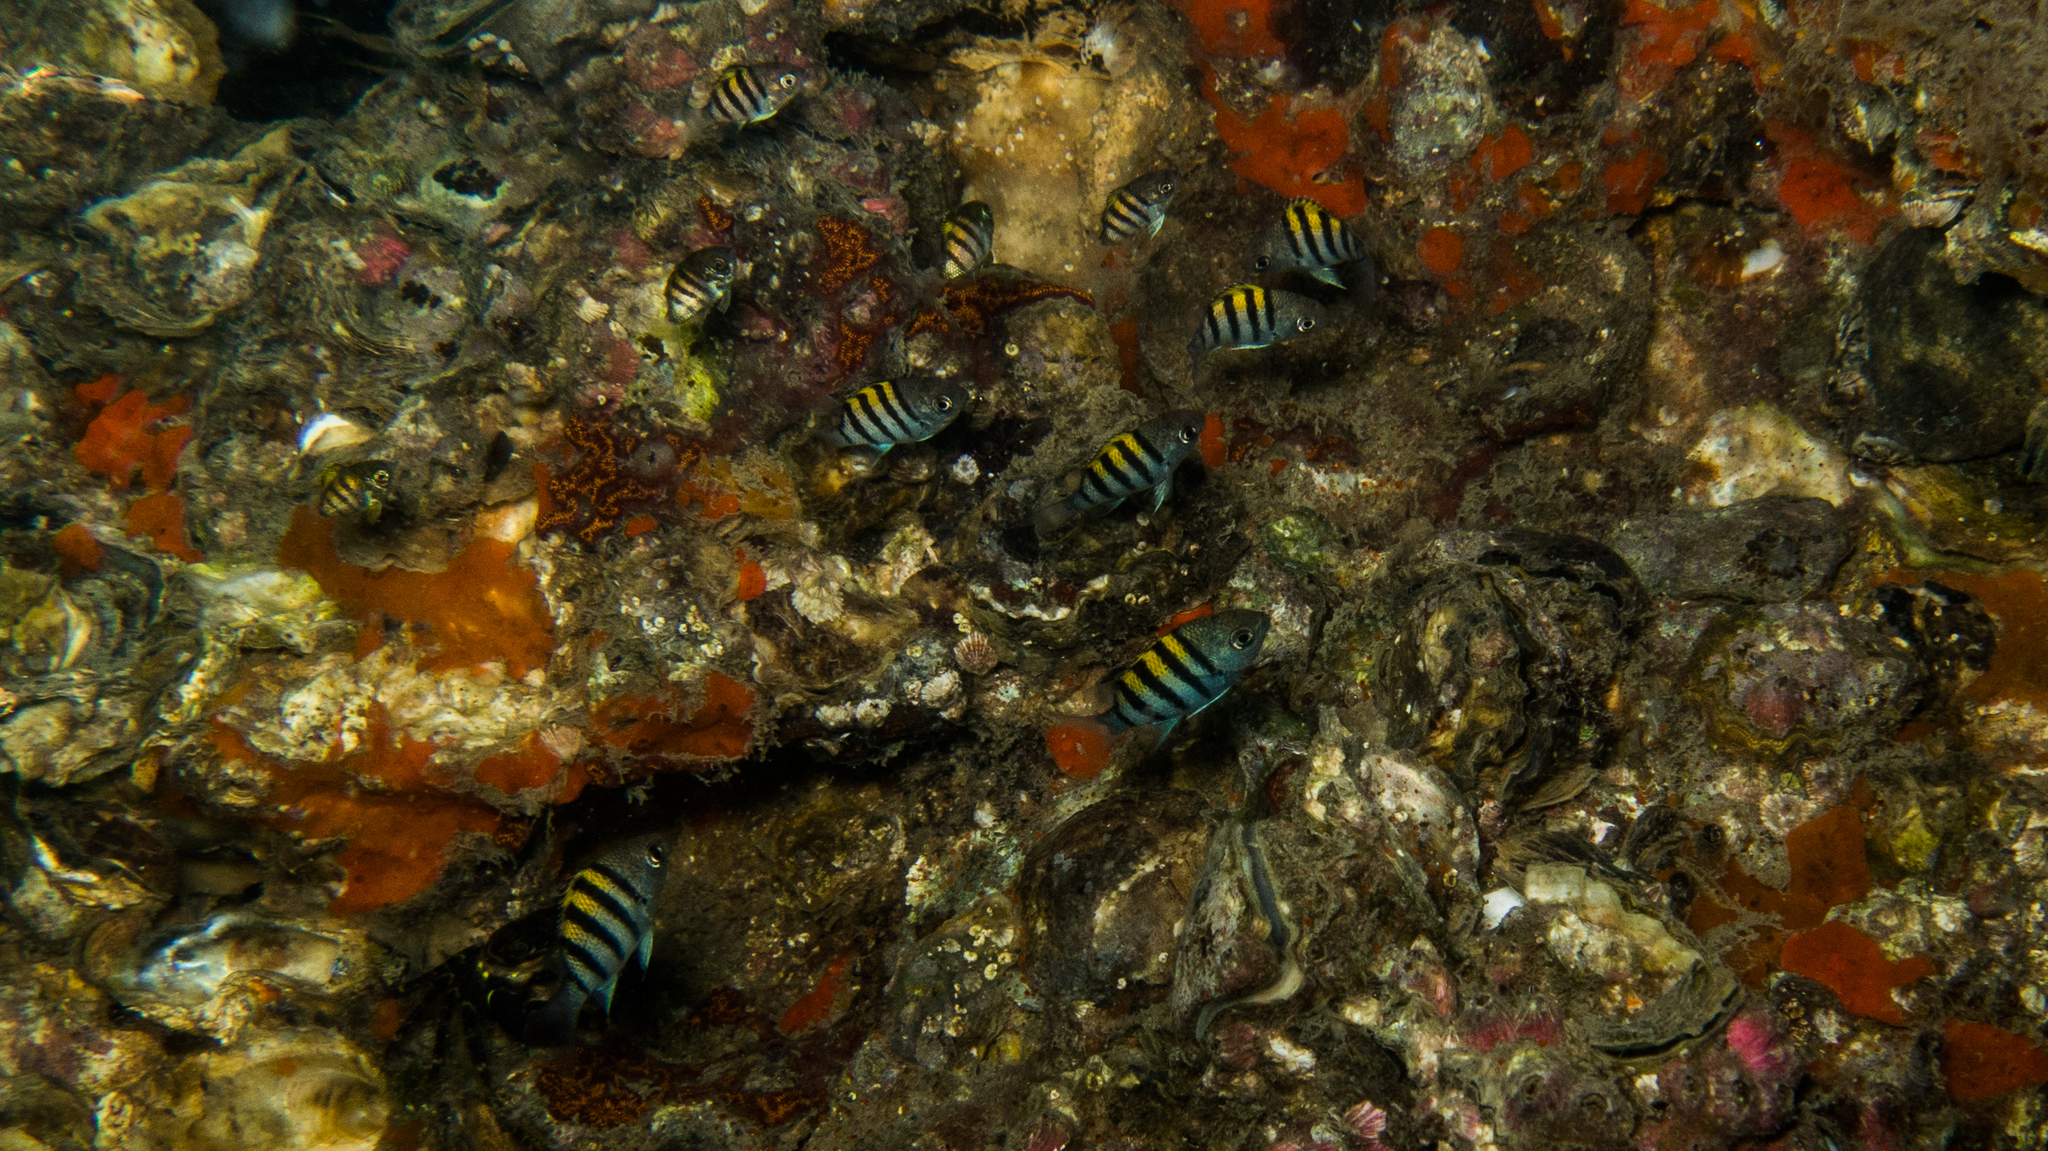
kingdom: Animalia
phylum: Chordata
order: Perciformes
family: Pomacentridae
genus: Abudefduf
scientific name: Abudefduf saxatilis
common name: Sergeant major
